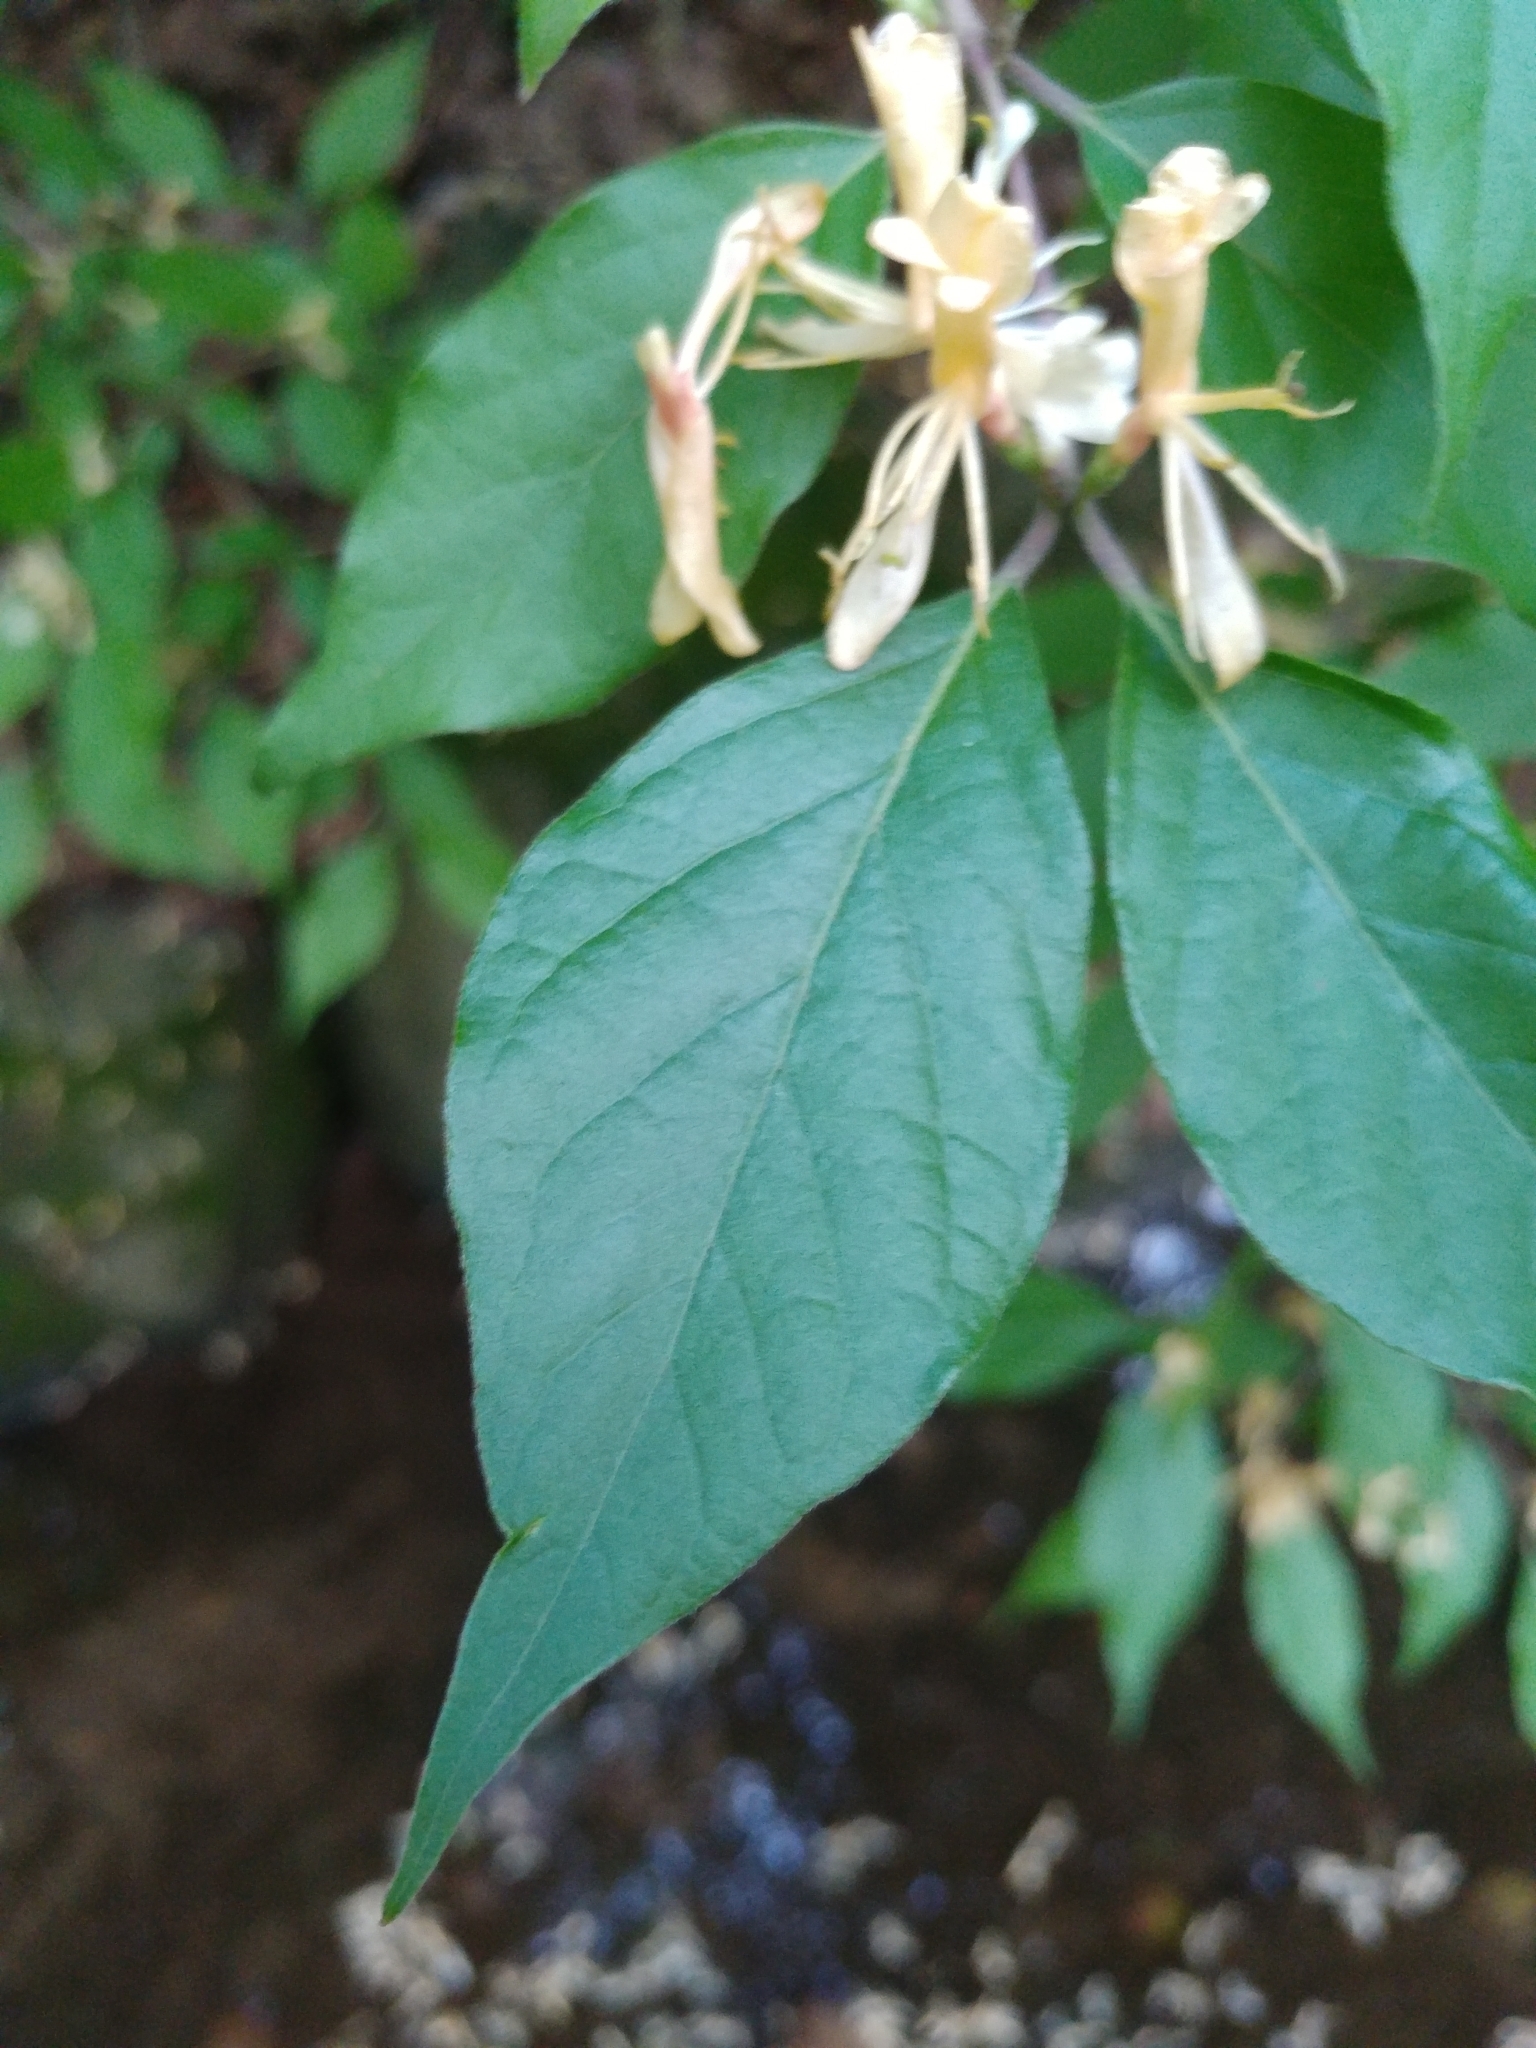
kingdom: Plantae
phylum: Tracheophyta
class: Magnoliopsida
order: Dipsacales
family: Caprifoliaceae
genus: Lonicera
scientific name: Lonicera maackii
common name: Amur honeysuckle
